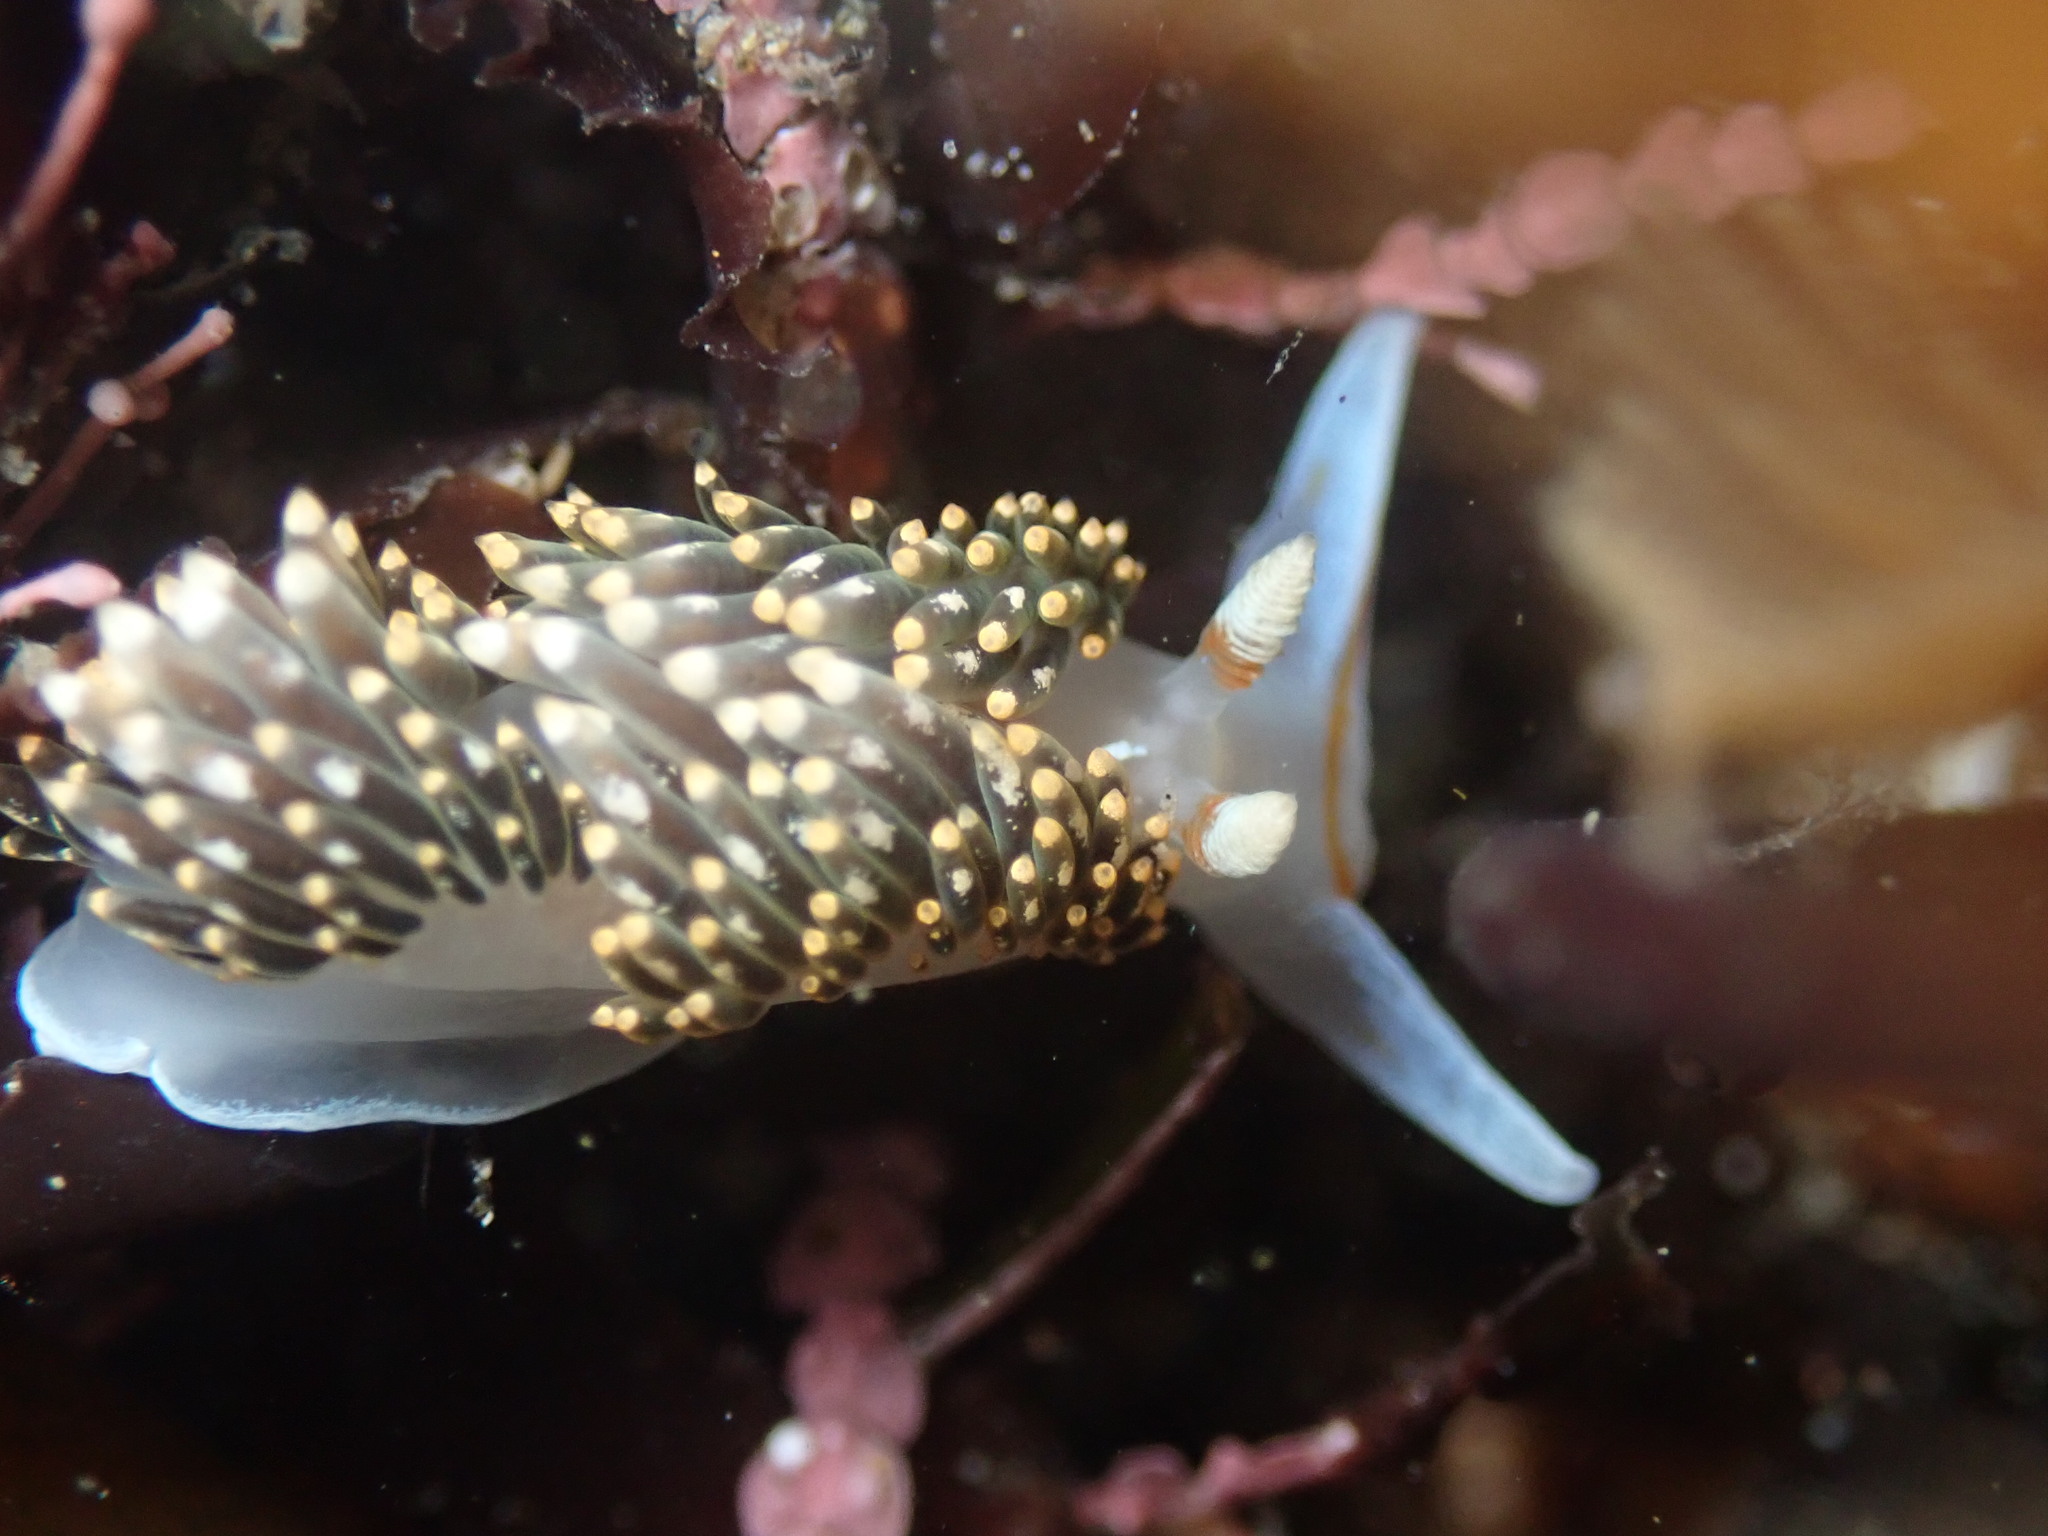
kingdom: Animalia
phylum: Mollusca
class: Gastropoda
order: Nudibranchia
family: Facelinidae
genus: Phidiana
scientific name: Phidiana hiltoni
